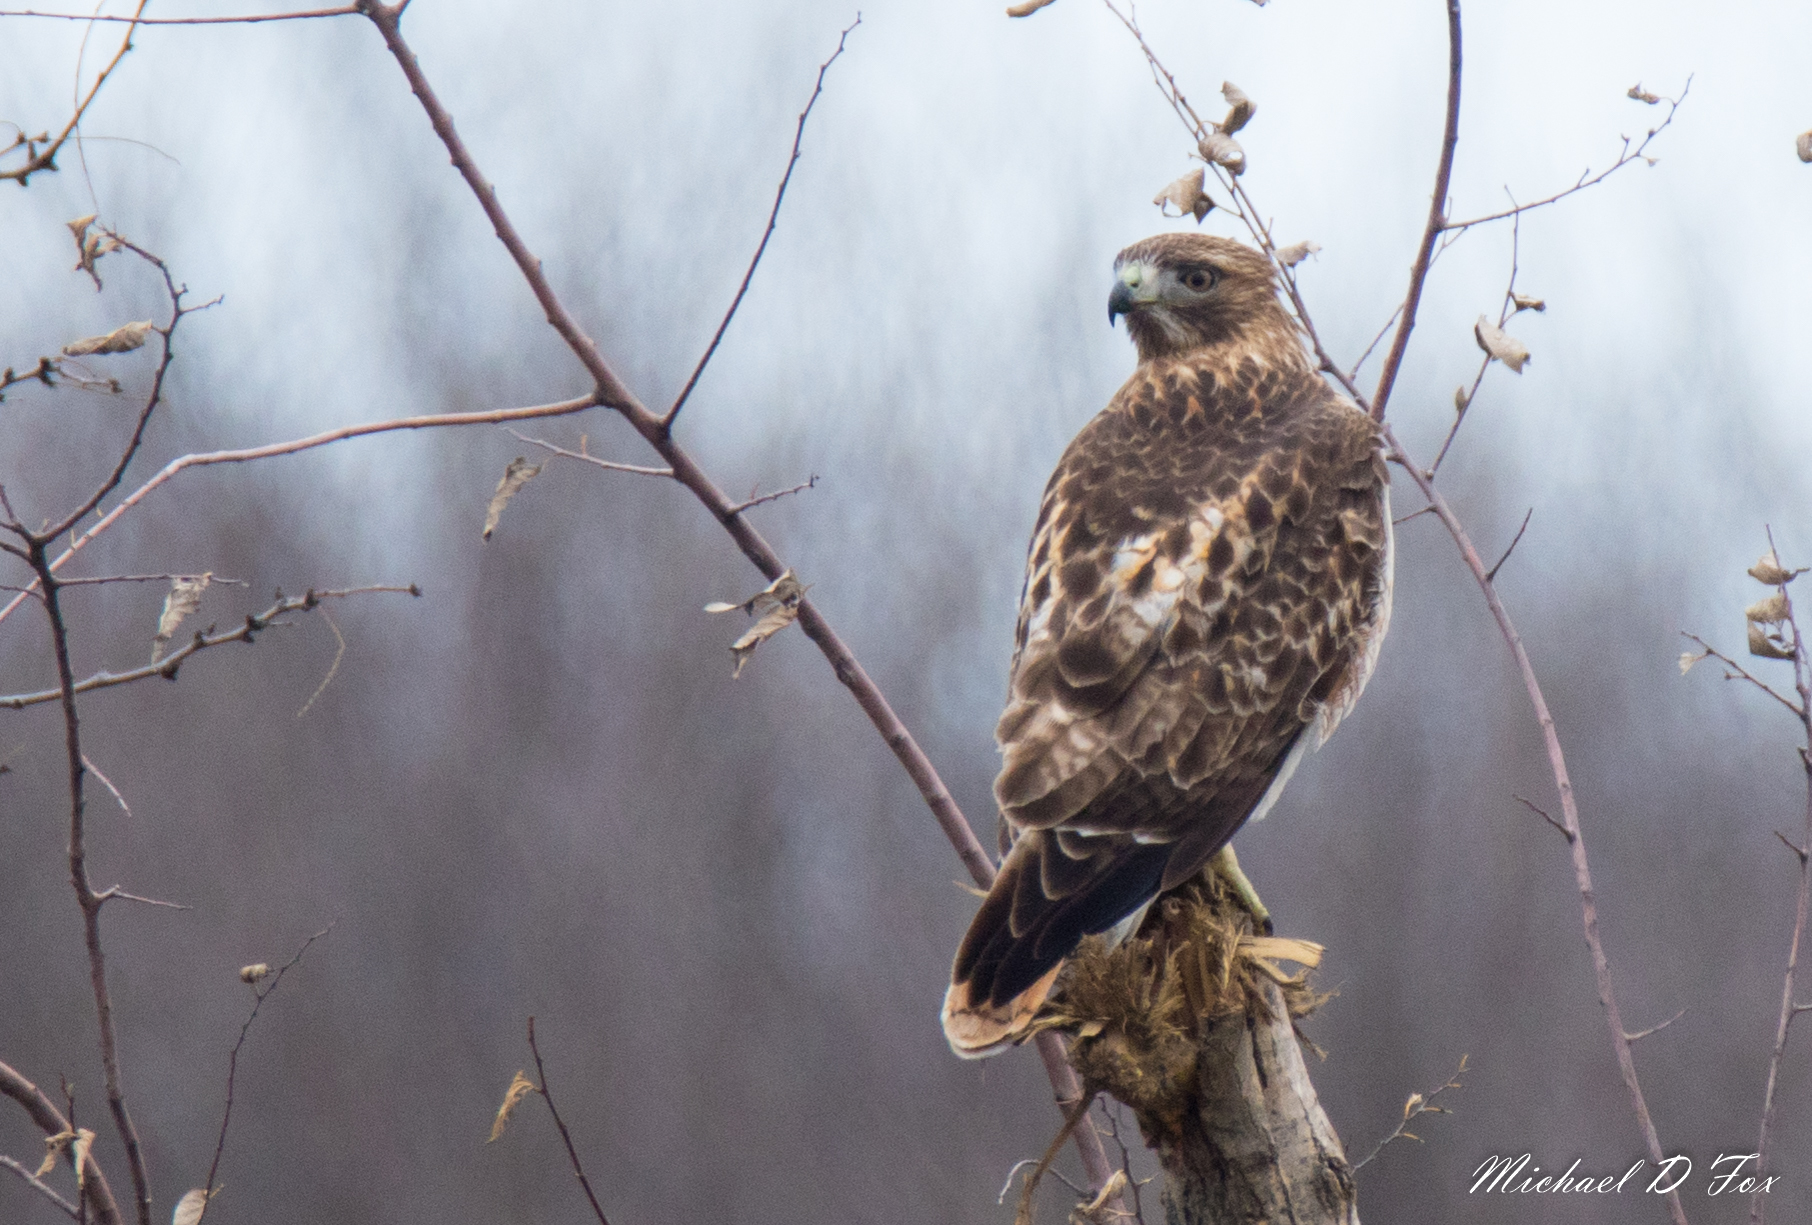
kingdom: Animalia
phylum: Chordata
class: Aves
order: Accipitriformes
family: Accipitridae
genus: Buteo
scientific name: Buteo jamaicensis
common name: Red-tailed hawk
